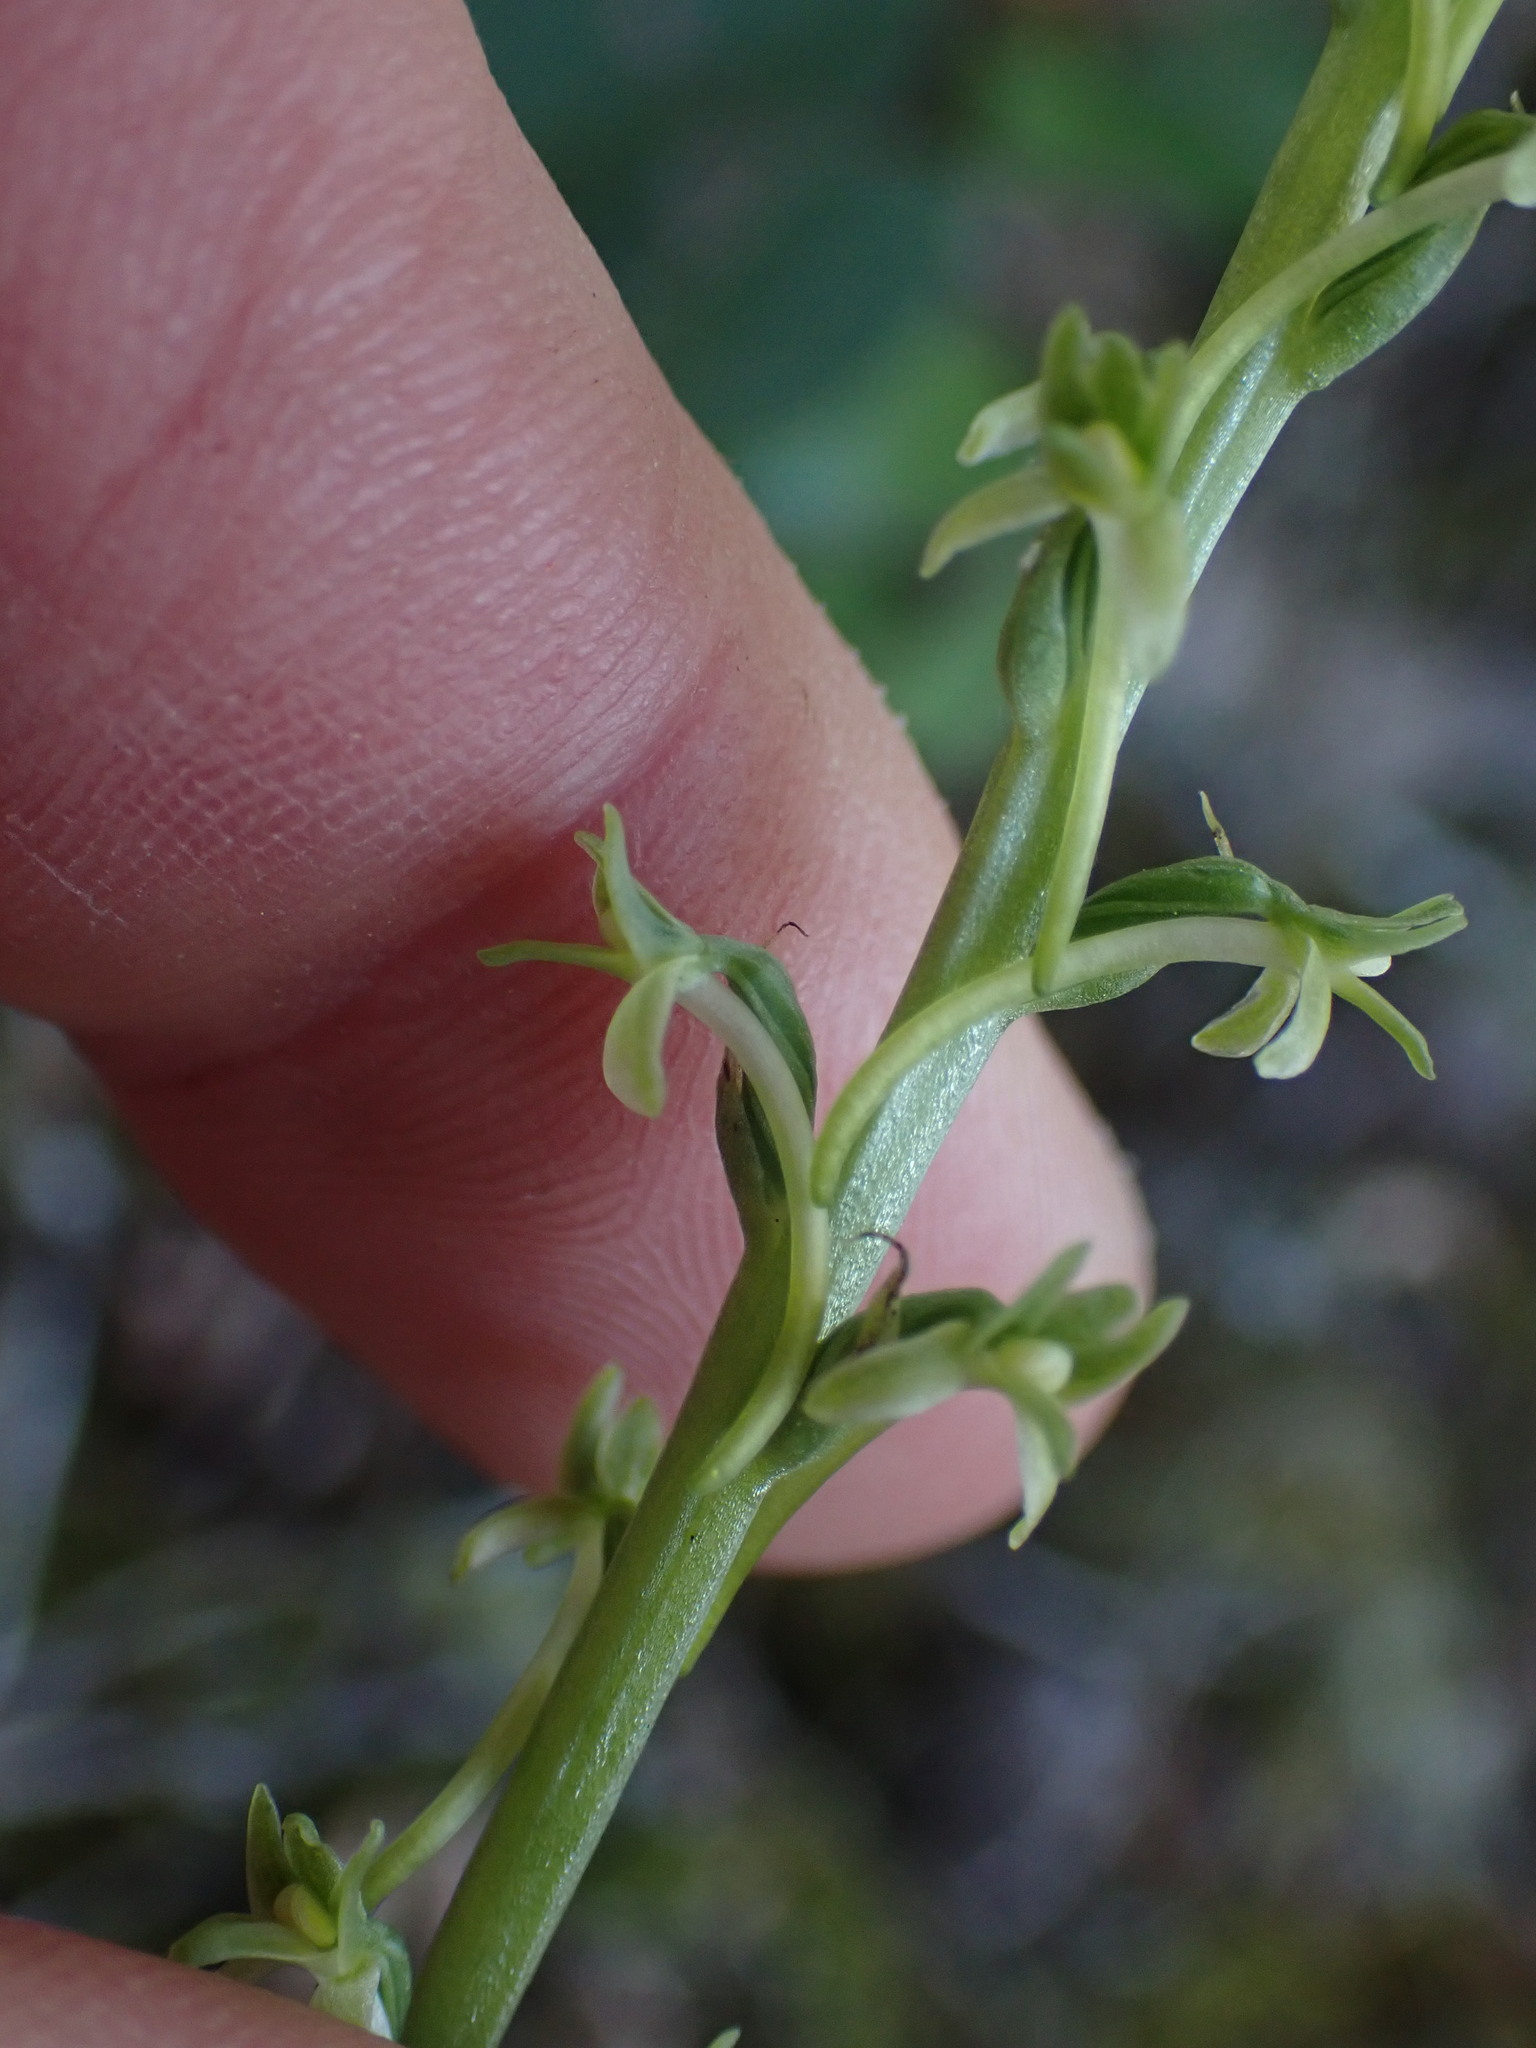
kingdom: Plantae
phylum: Tracheophyta
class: Liliopsida
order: Asparagales
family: Orchidaceae
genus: Platanthera
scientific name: Platanthera elongata
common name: Dense-flowered rein orchid
